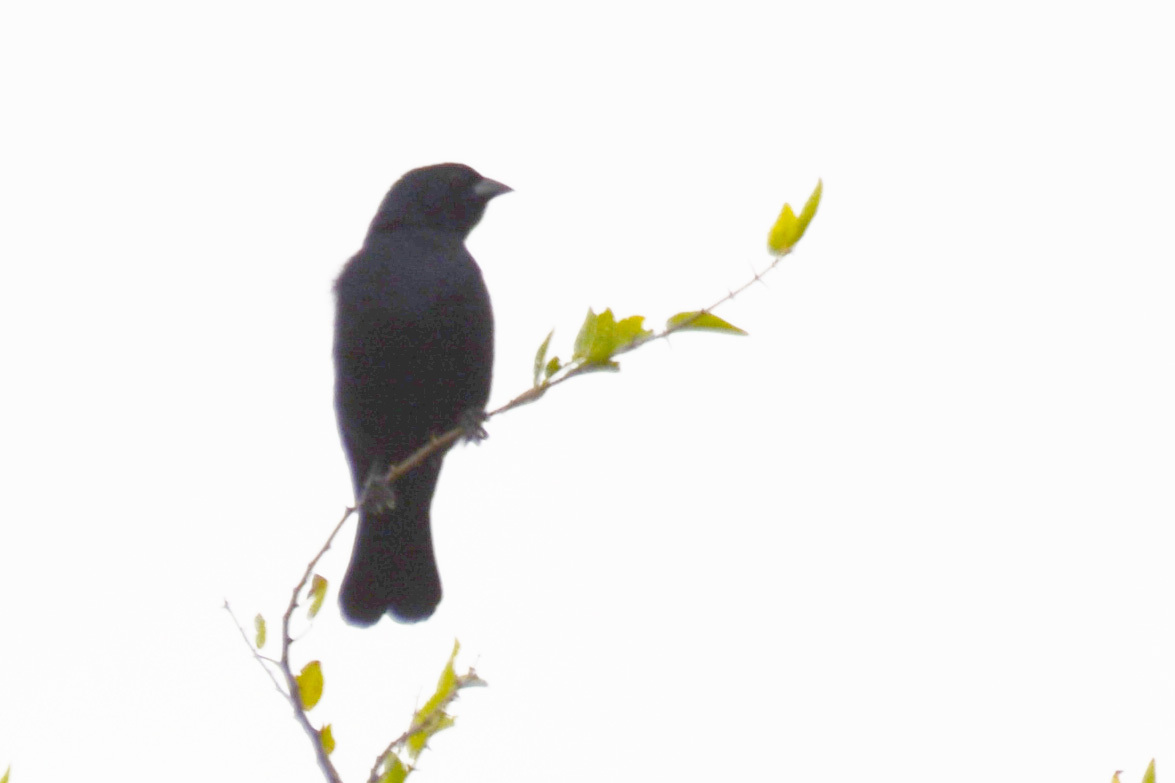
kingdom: Animalia
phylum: Chordata
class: Aves
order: Passeriformes
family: Icteridae
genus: Molothrus
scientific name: Molothrus rufoaxillaris
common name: Screaming cowbird
